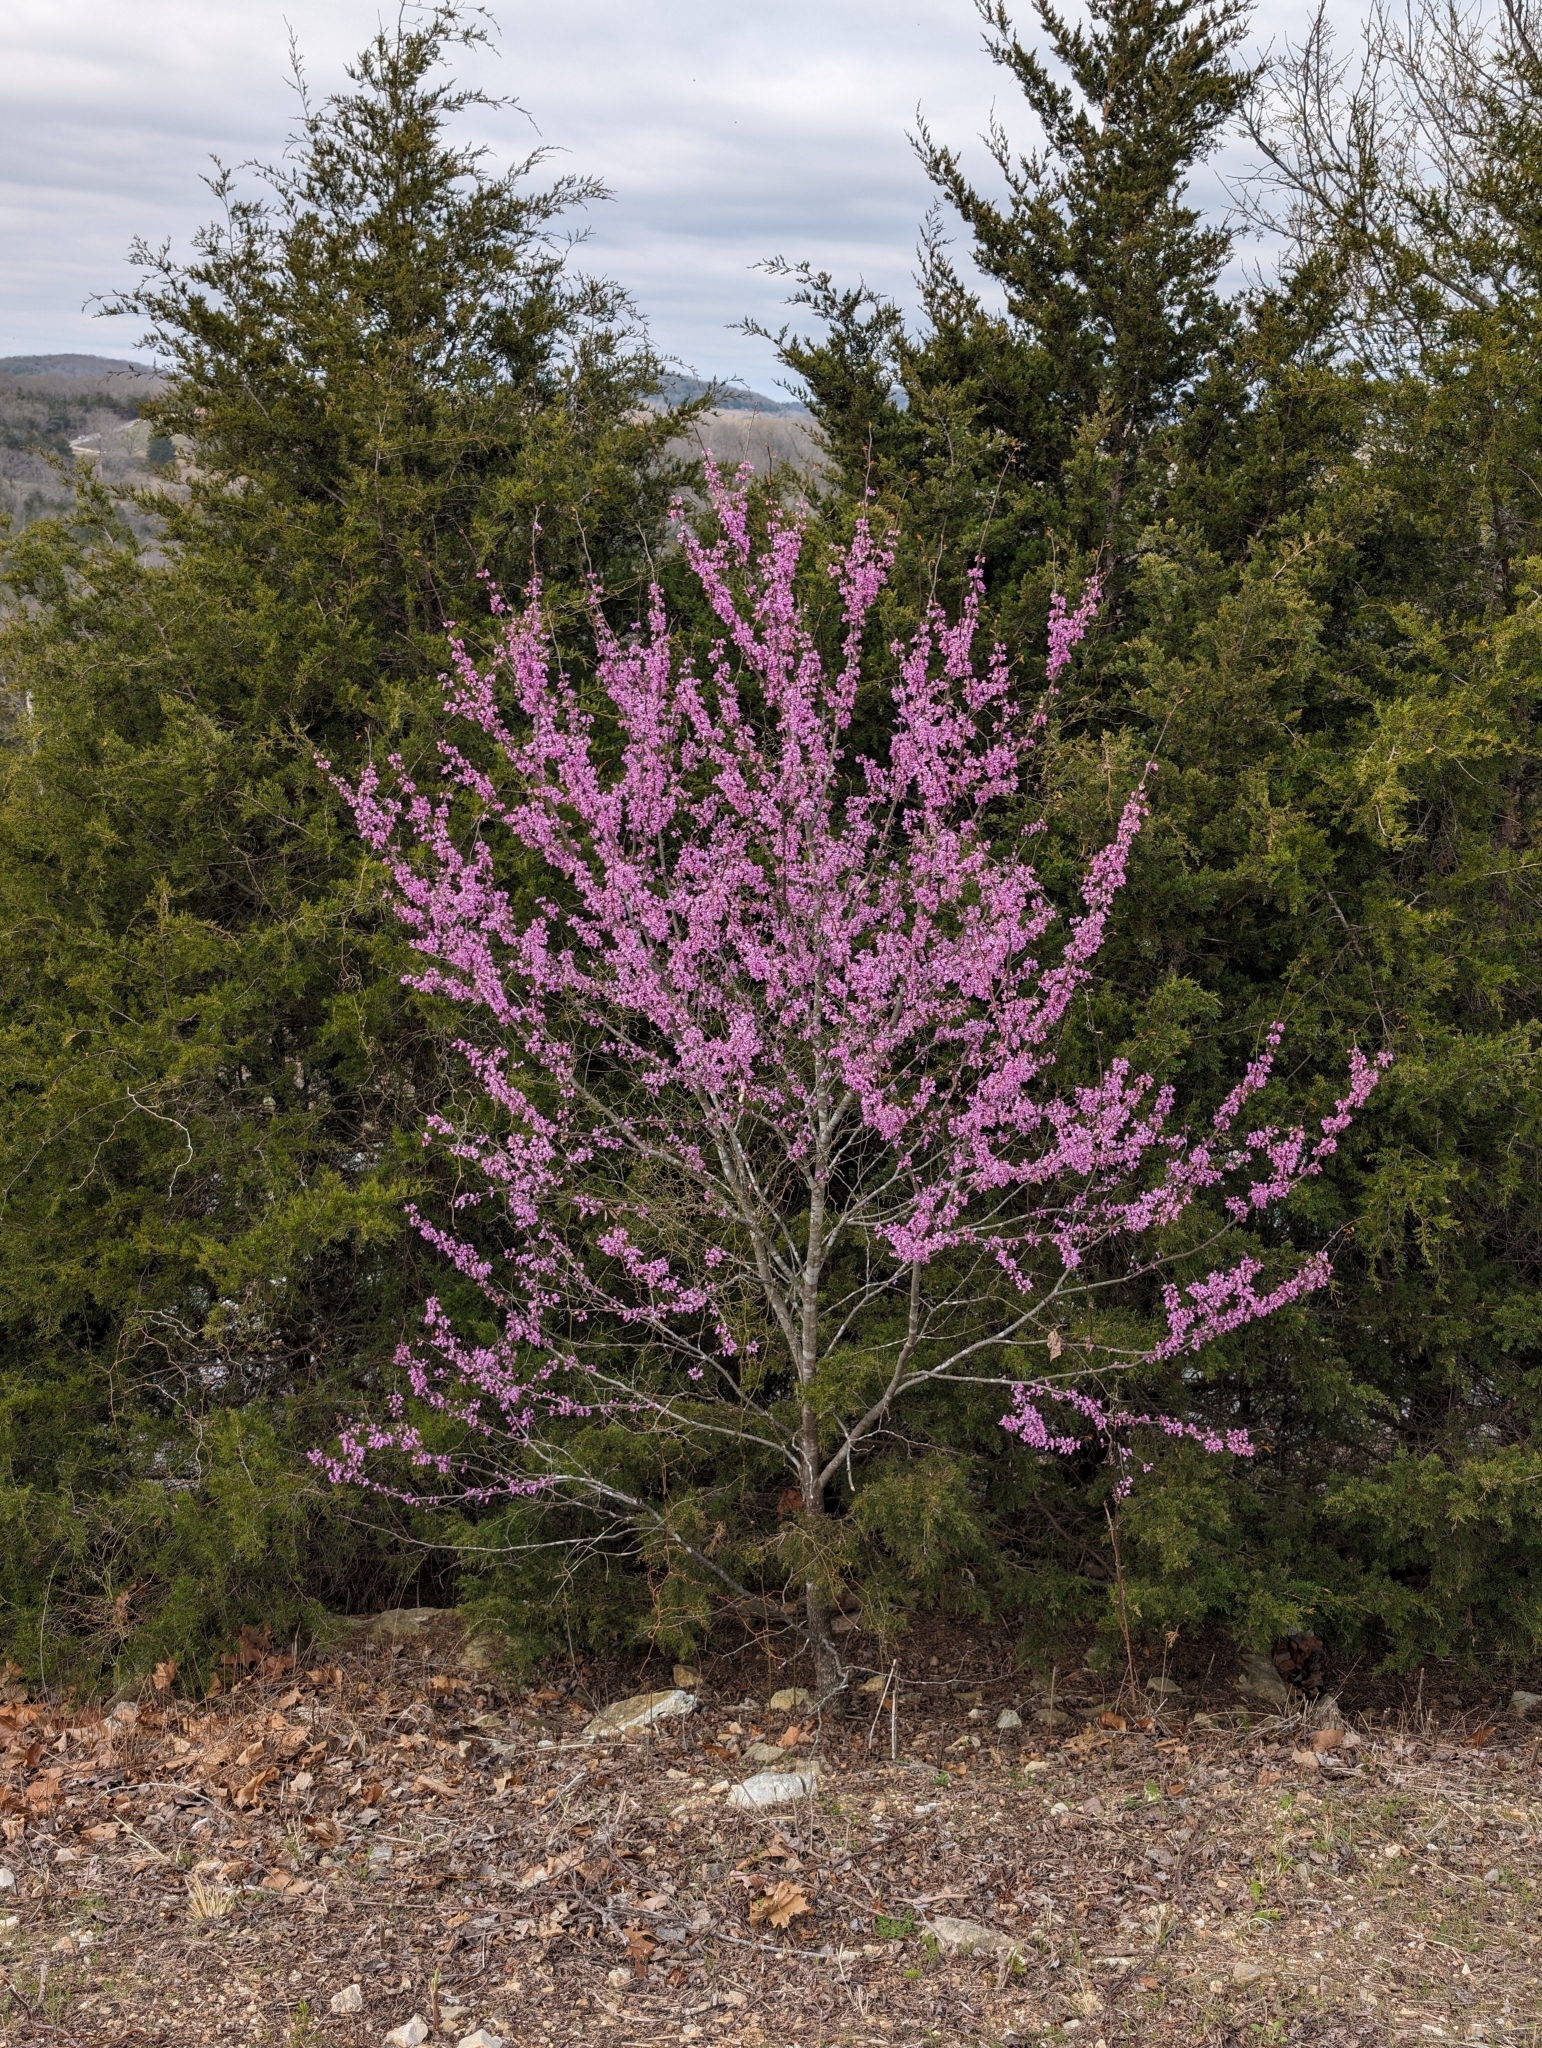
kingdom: Plantae
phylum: Tracheophyta
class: Magnoliopsida
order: Fabales
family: Fabaceae
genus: Cercis
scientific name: Cercis canadensis
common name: Eastern redbud
